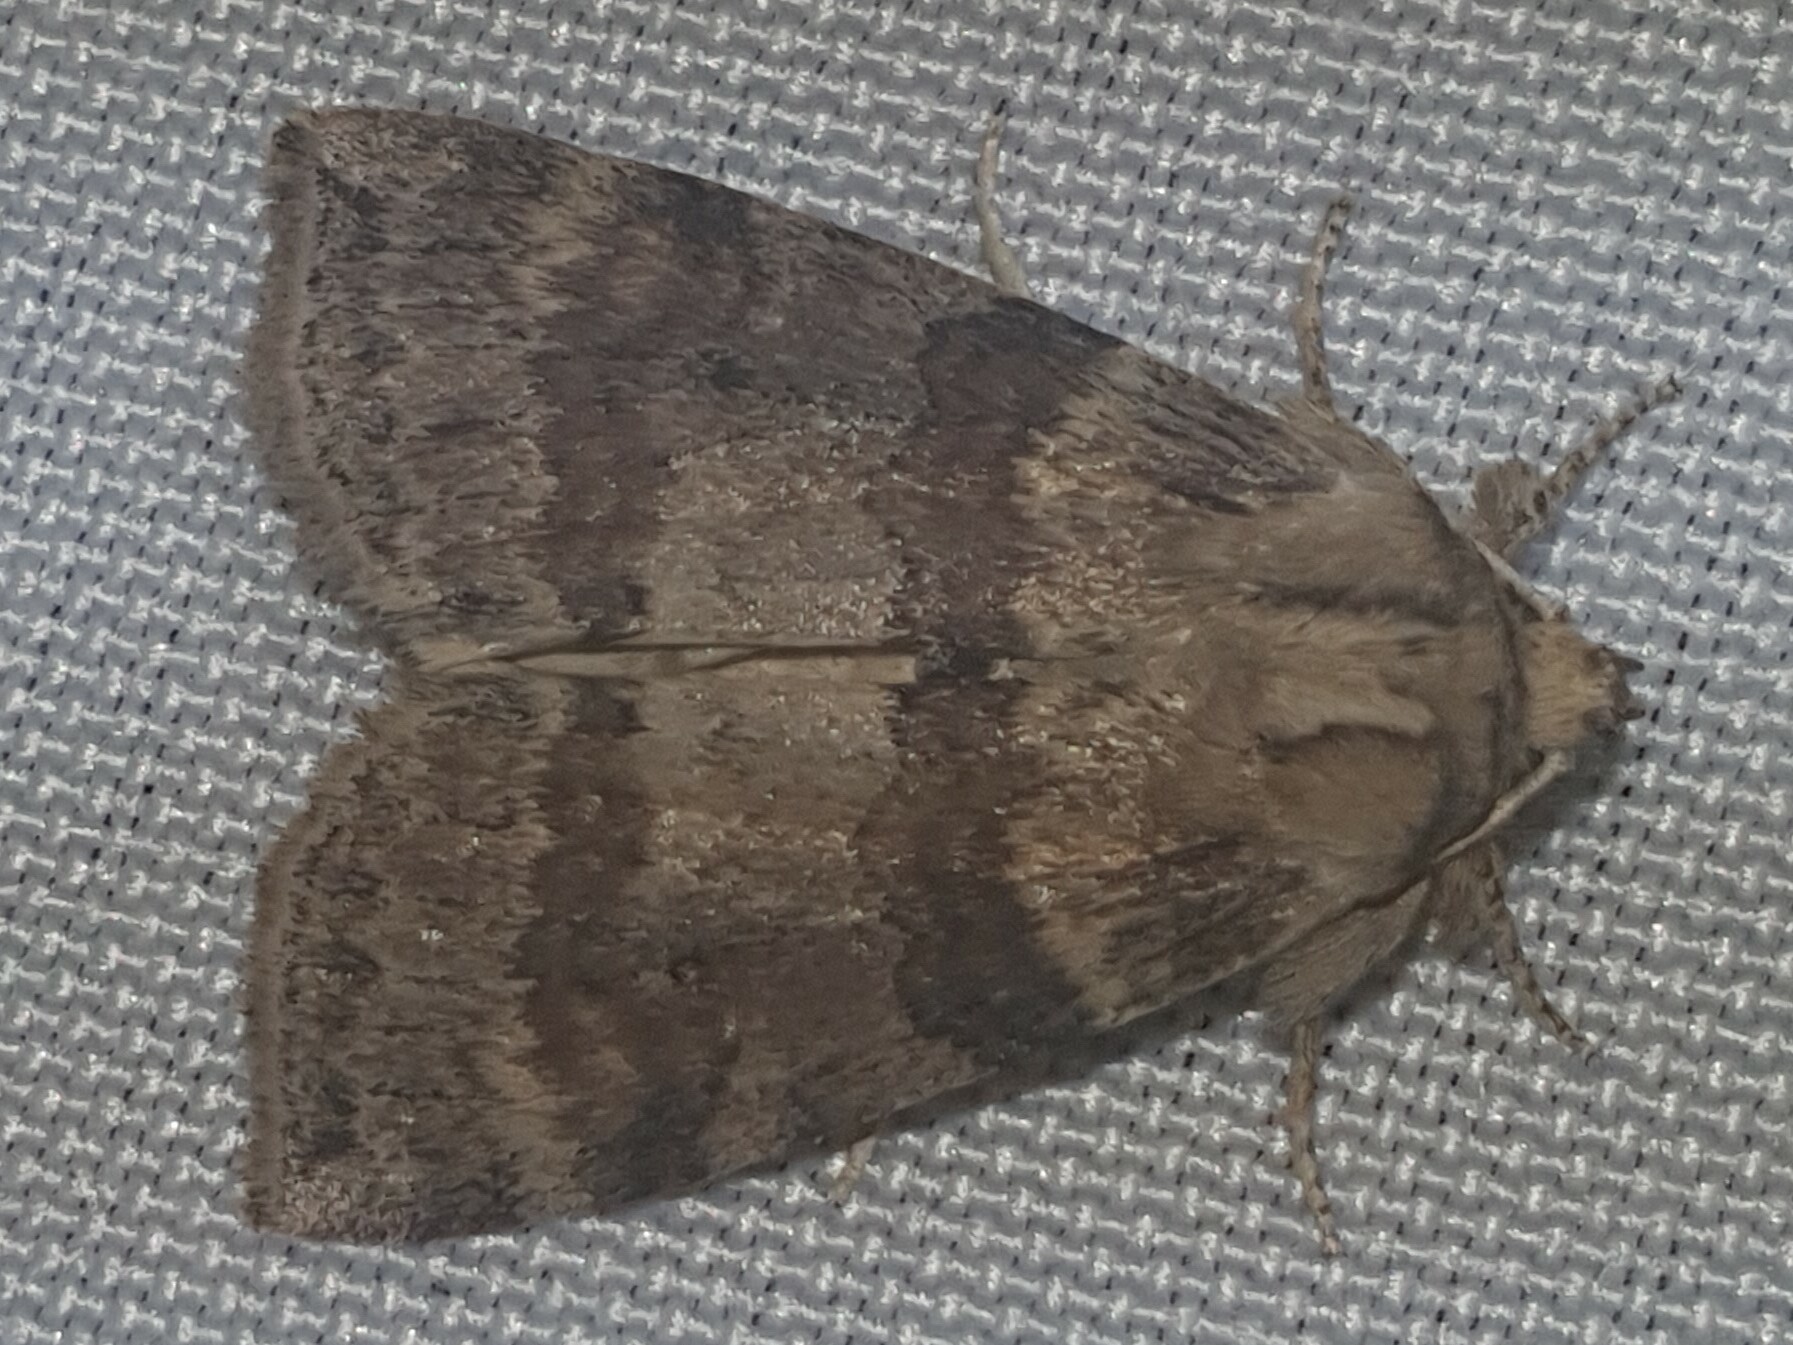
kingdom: Animalia
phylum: Arthropoda
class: Insecta
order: Lepidoptera
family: Drepanidae
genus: Cymatophorina
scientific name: Cymatophorina diluta
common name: Oak lutestring
